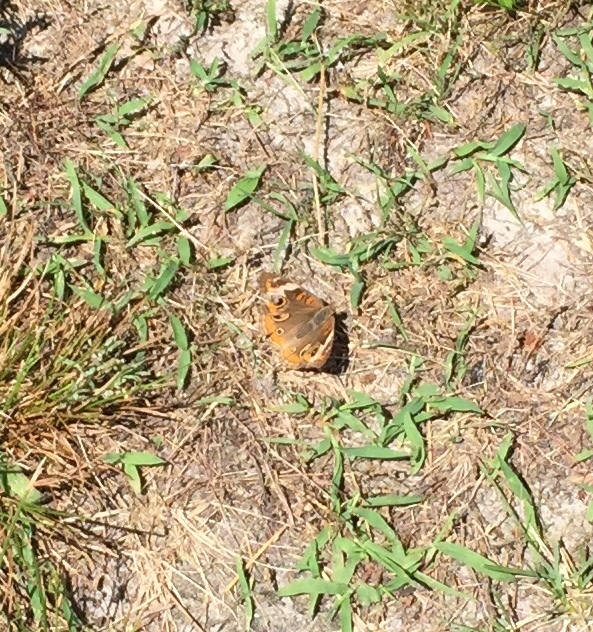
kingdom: Animalia
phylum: Arthropoda
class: Insecta
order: Lepidoptera
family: Nymphalidae
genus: Junonia
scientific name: Junonia coenia
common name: Common buckeye
